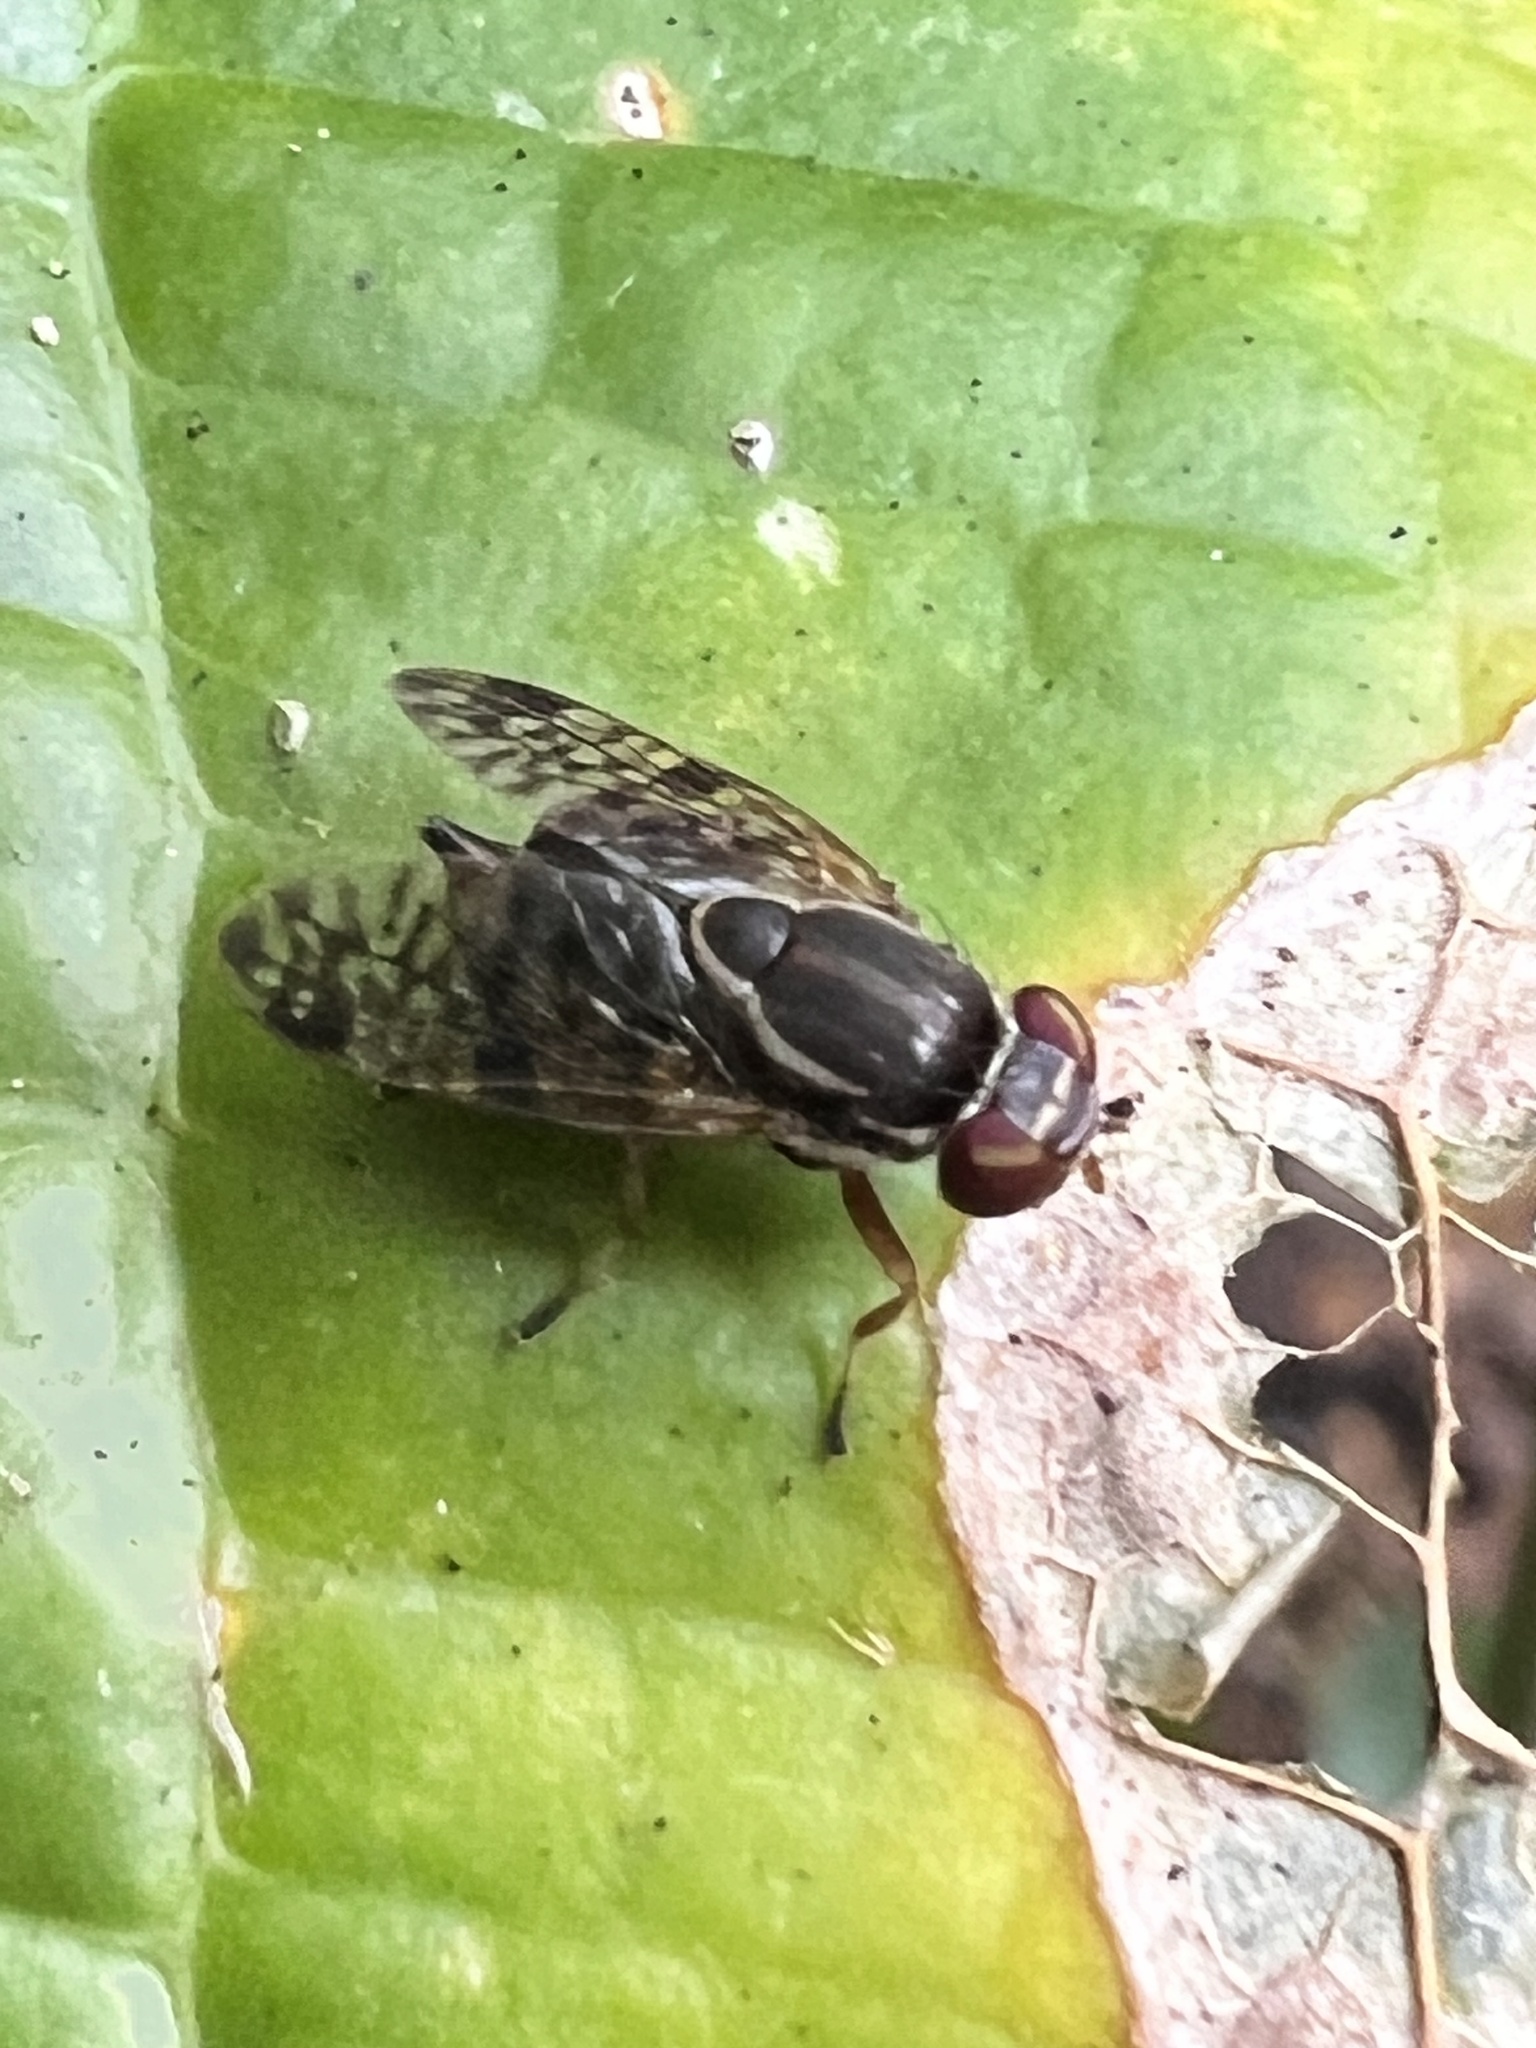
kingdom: Animalia
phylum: Arthropoda
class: Insecta
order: Diptera
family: Platystomatidae
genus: Scholastes
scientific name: Scholastes bimaculatus
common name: Picture-winged fly
